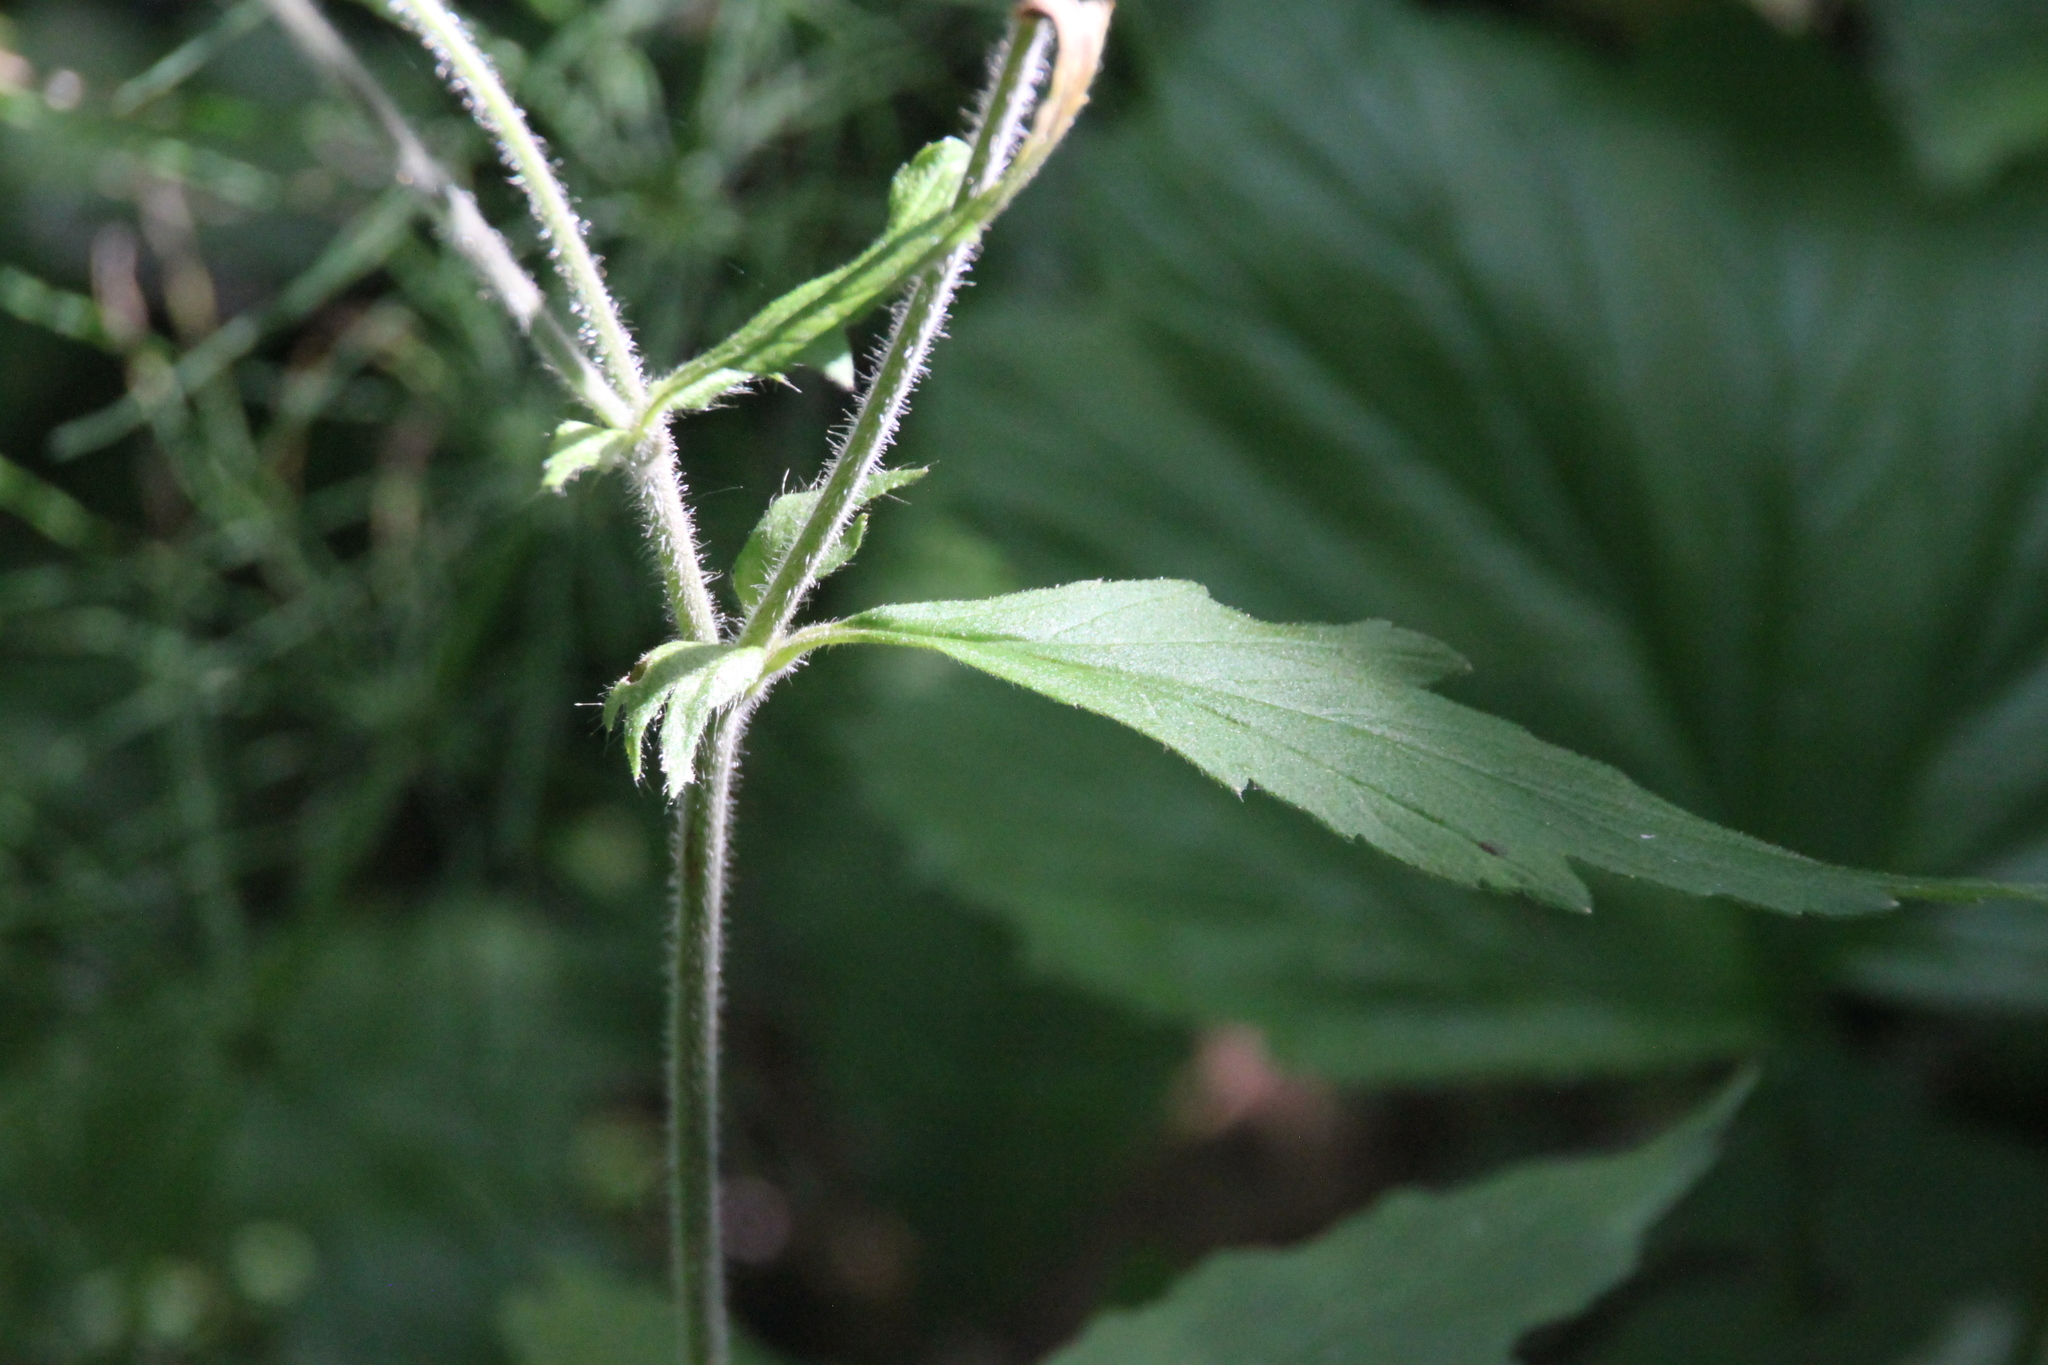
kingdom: Plantae
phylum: Tracheophyta
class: Magnoliopsida
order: Rosales
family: Rosaceae
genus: Geum
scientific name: Geum rivale
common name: Water avens
